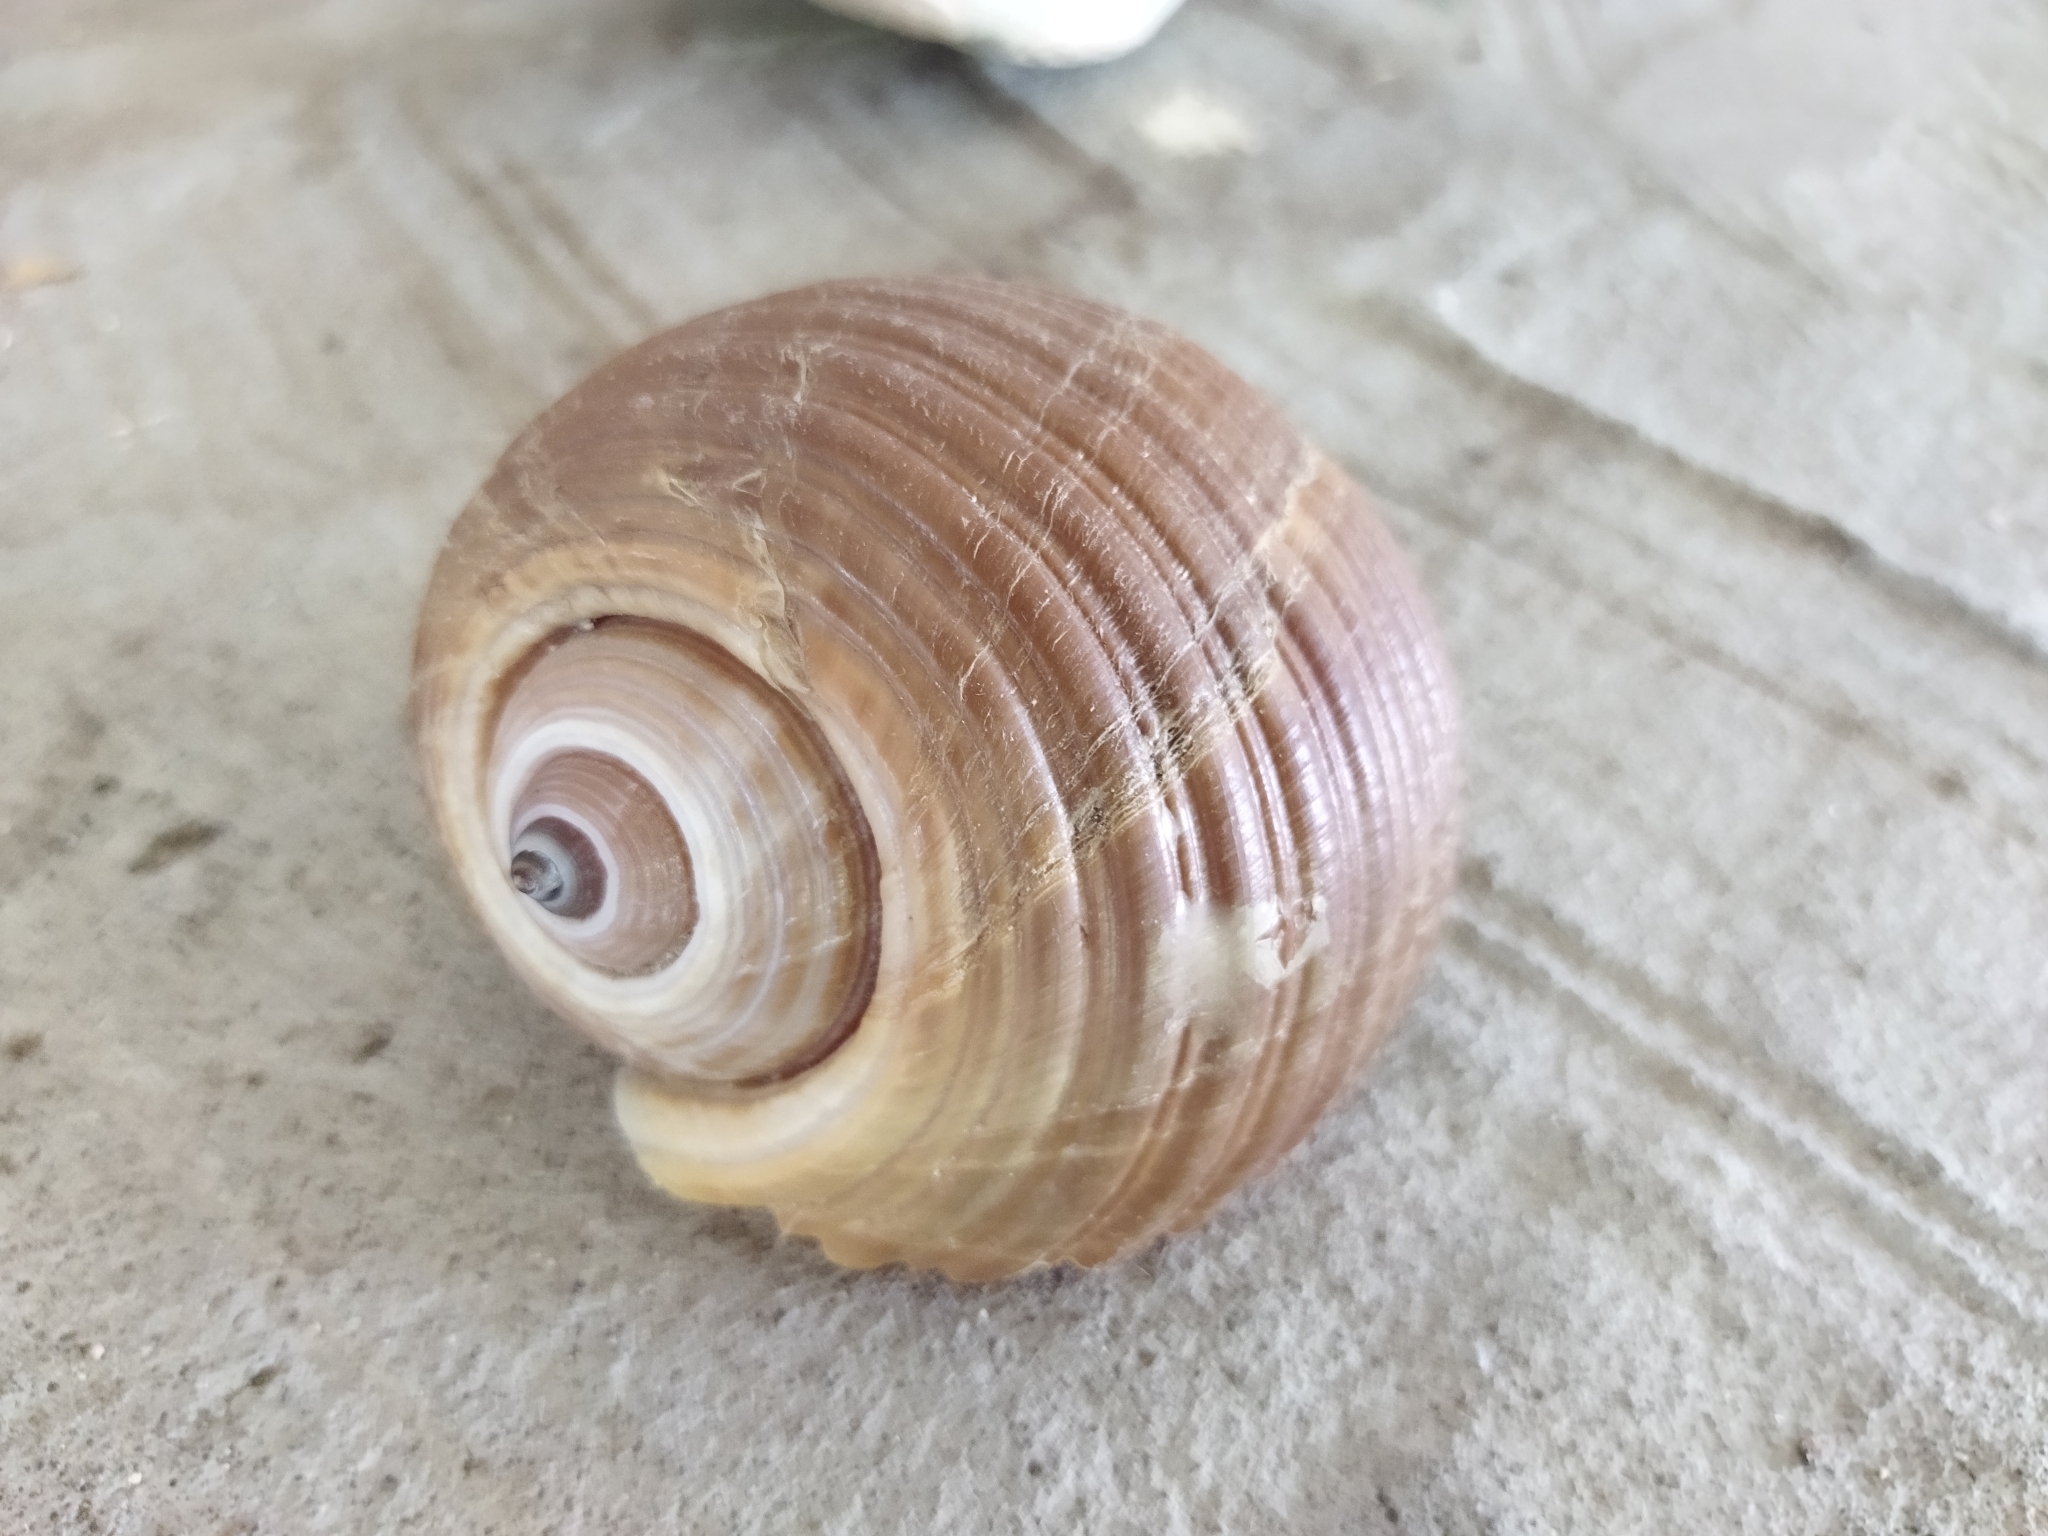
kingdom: Animalia
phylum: Mollusca
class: Gastropoda
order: Littorinimorpha
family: Tonnidae
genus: Tonna
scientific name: Tonna galea
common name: Giant tun
